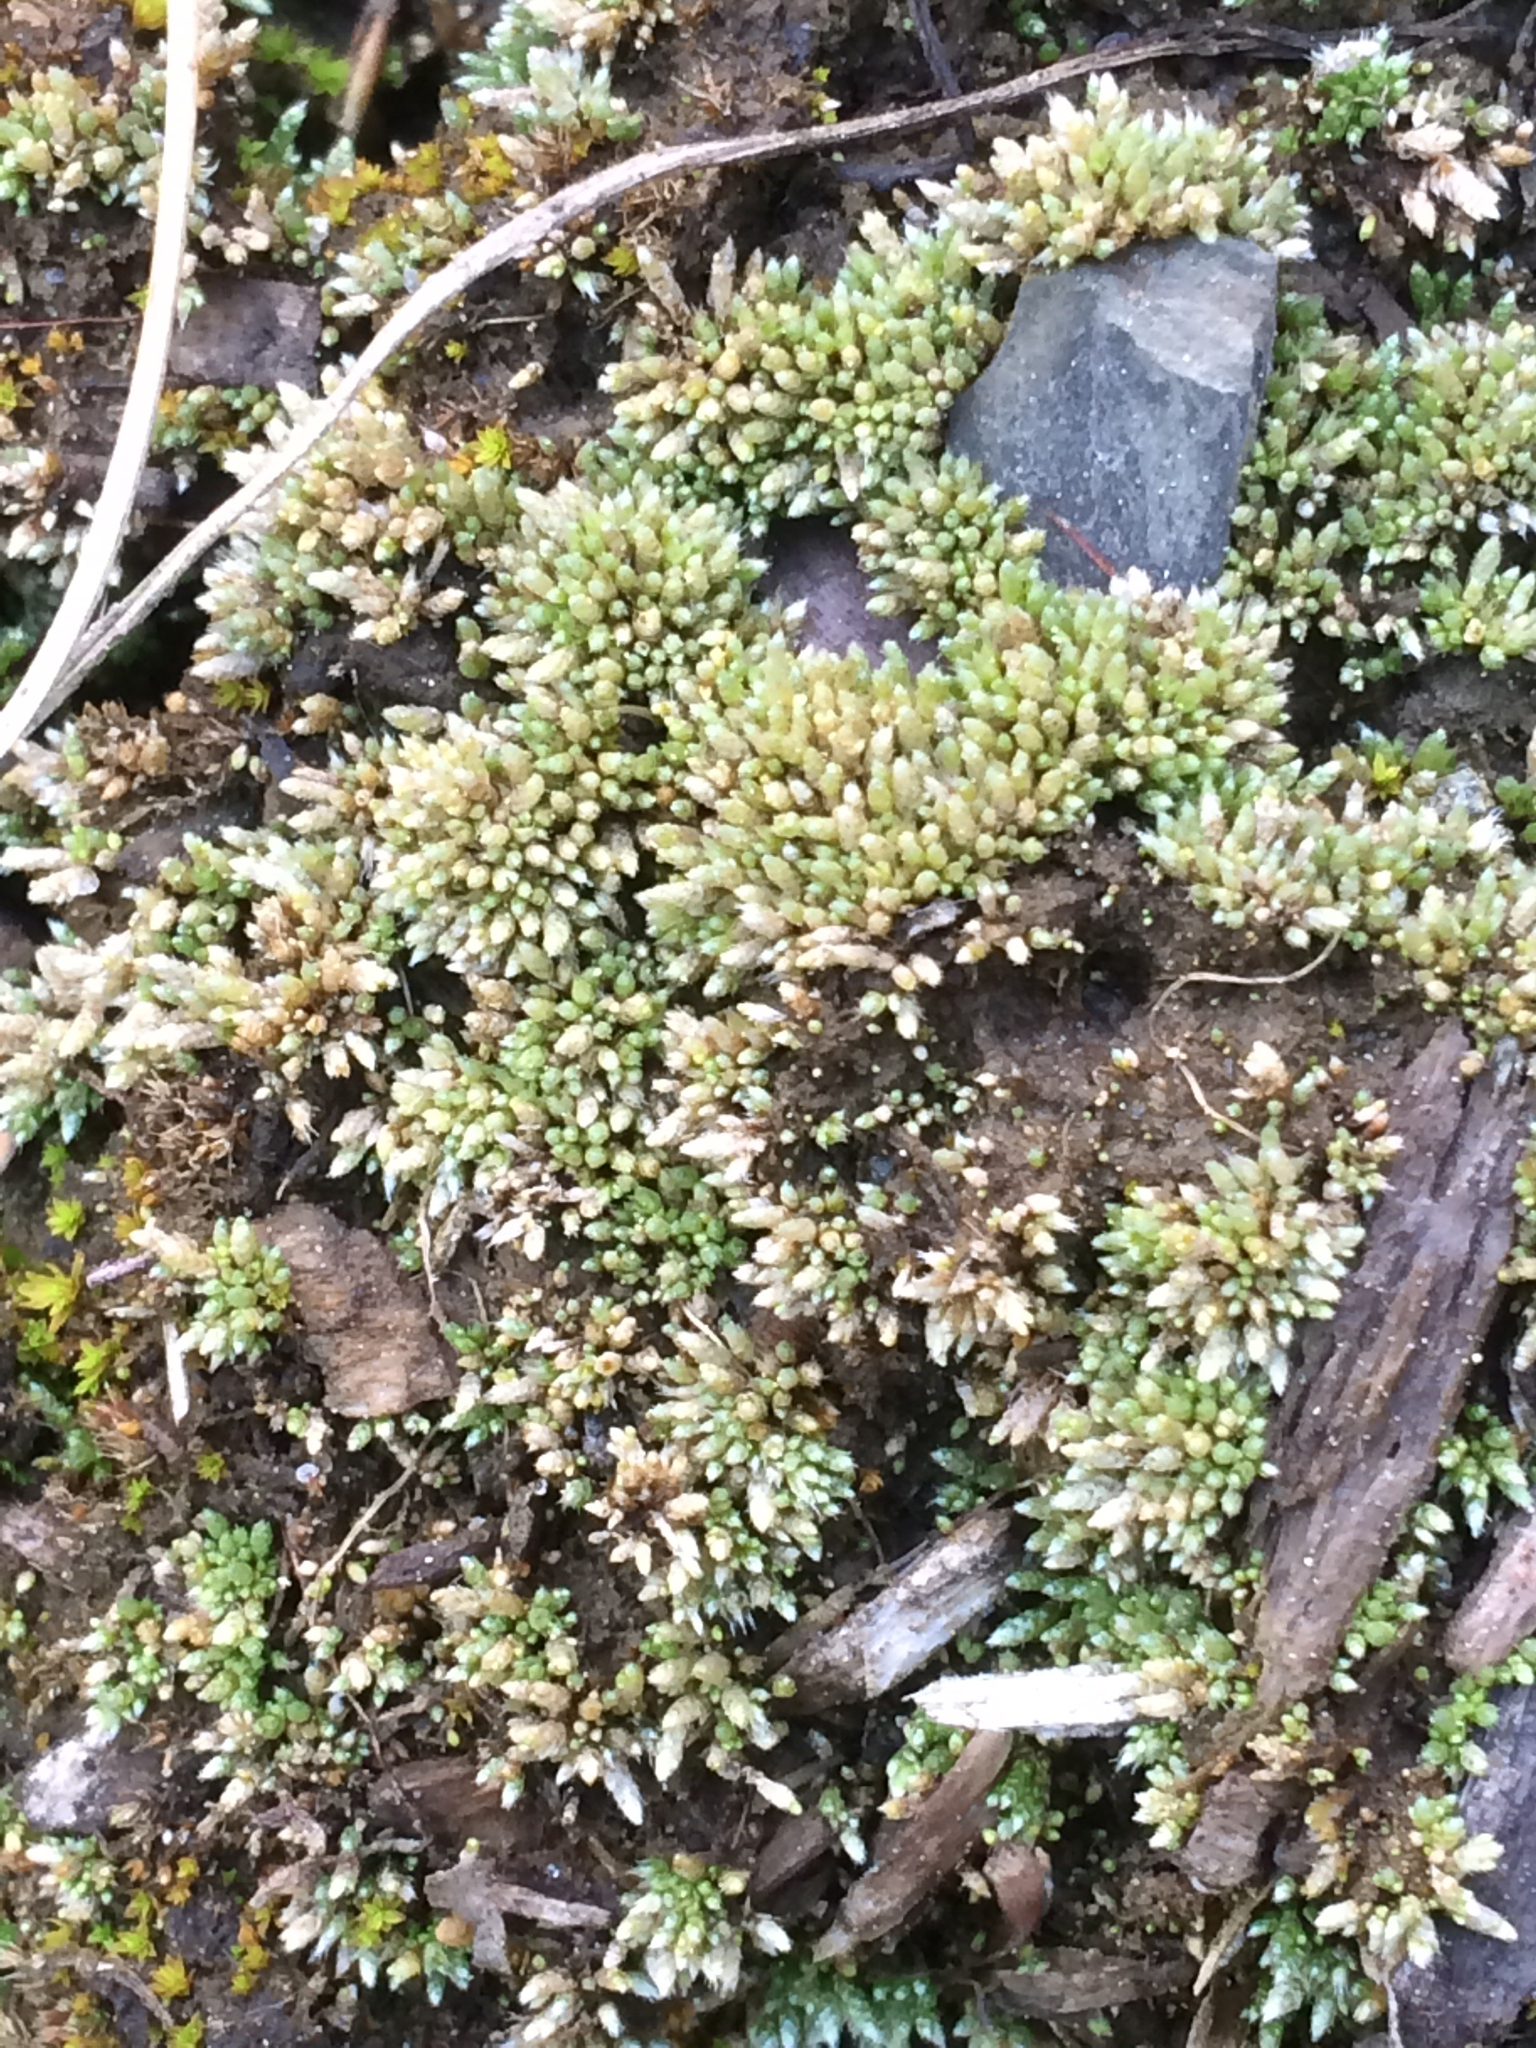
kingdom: Plantae
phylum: Bryophyta
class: Bryopsida
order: Bryales
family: Bryaceae
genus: Bryum
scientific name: Bryum argenteum
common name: Silver-moss
